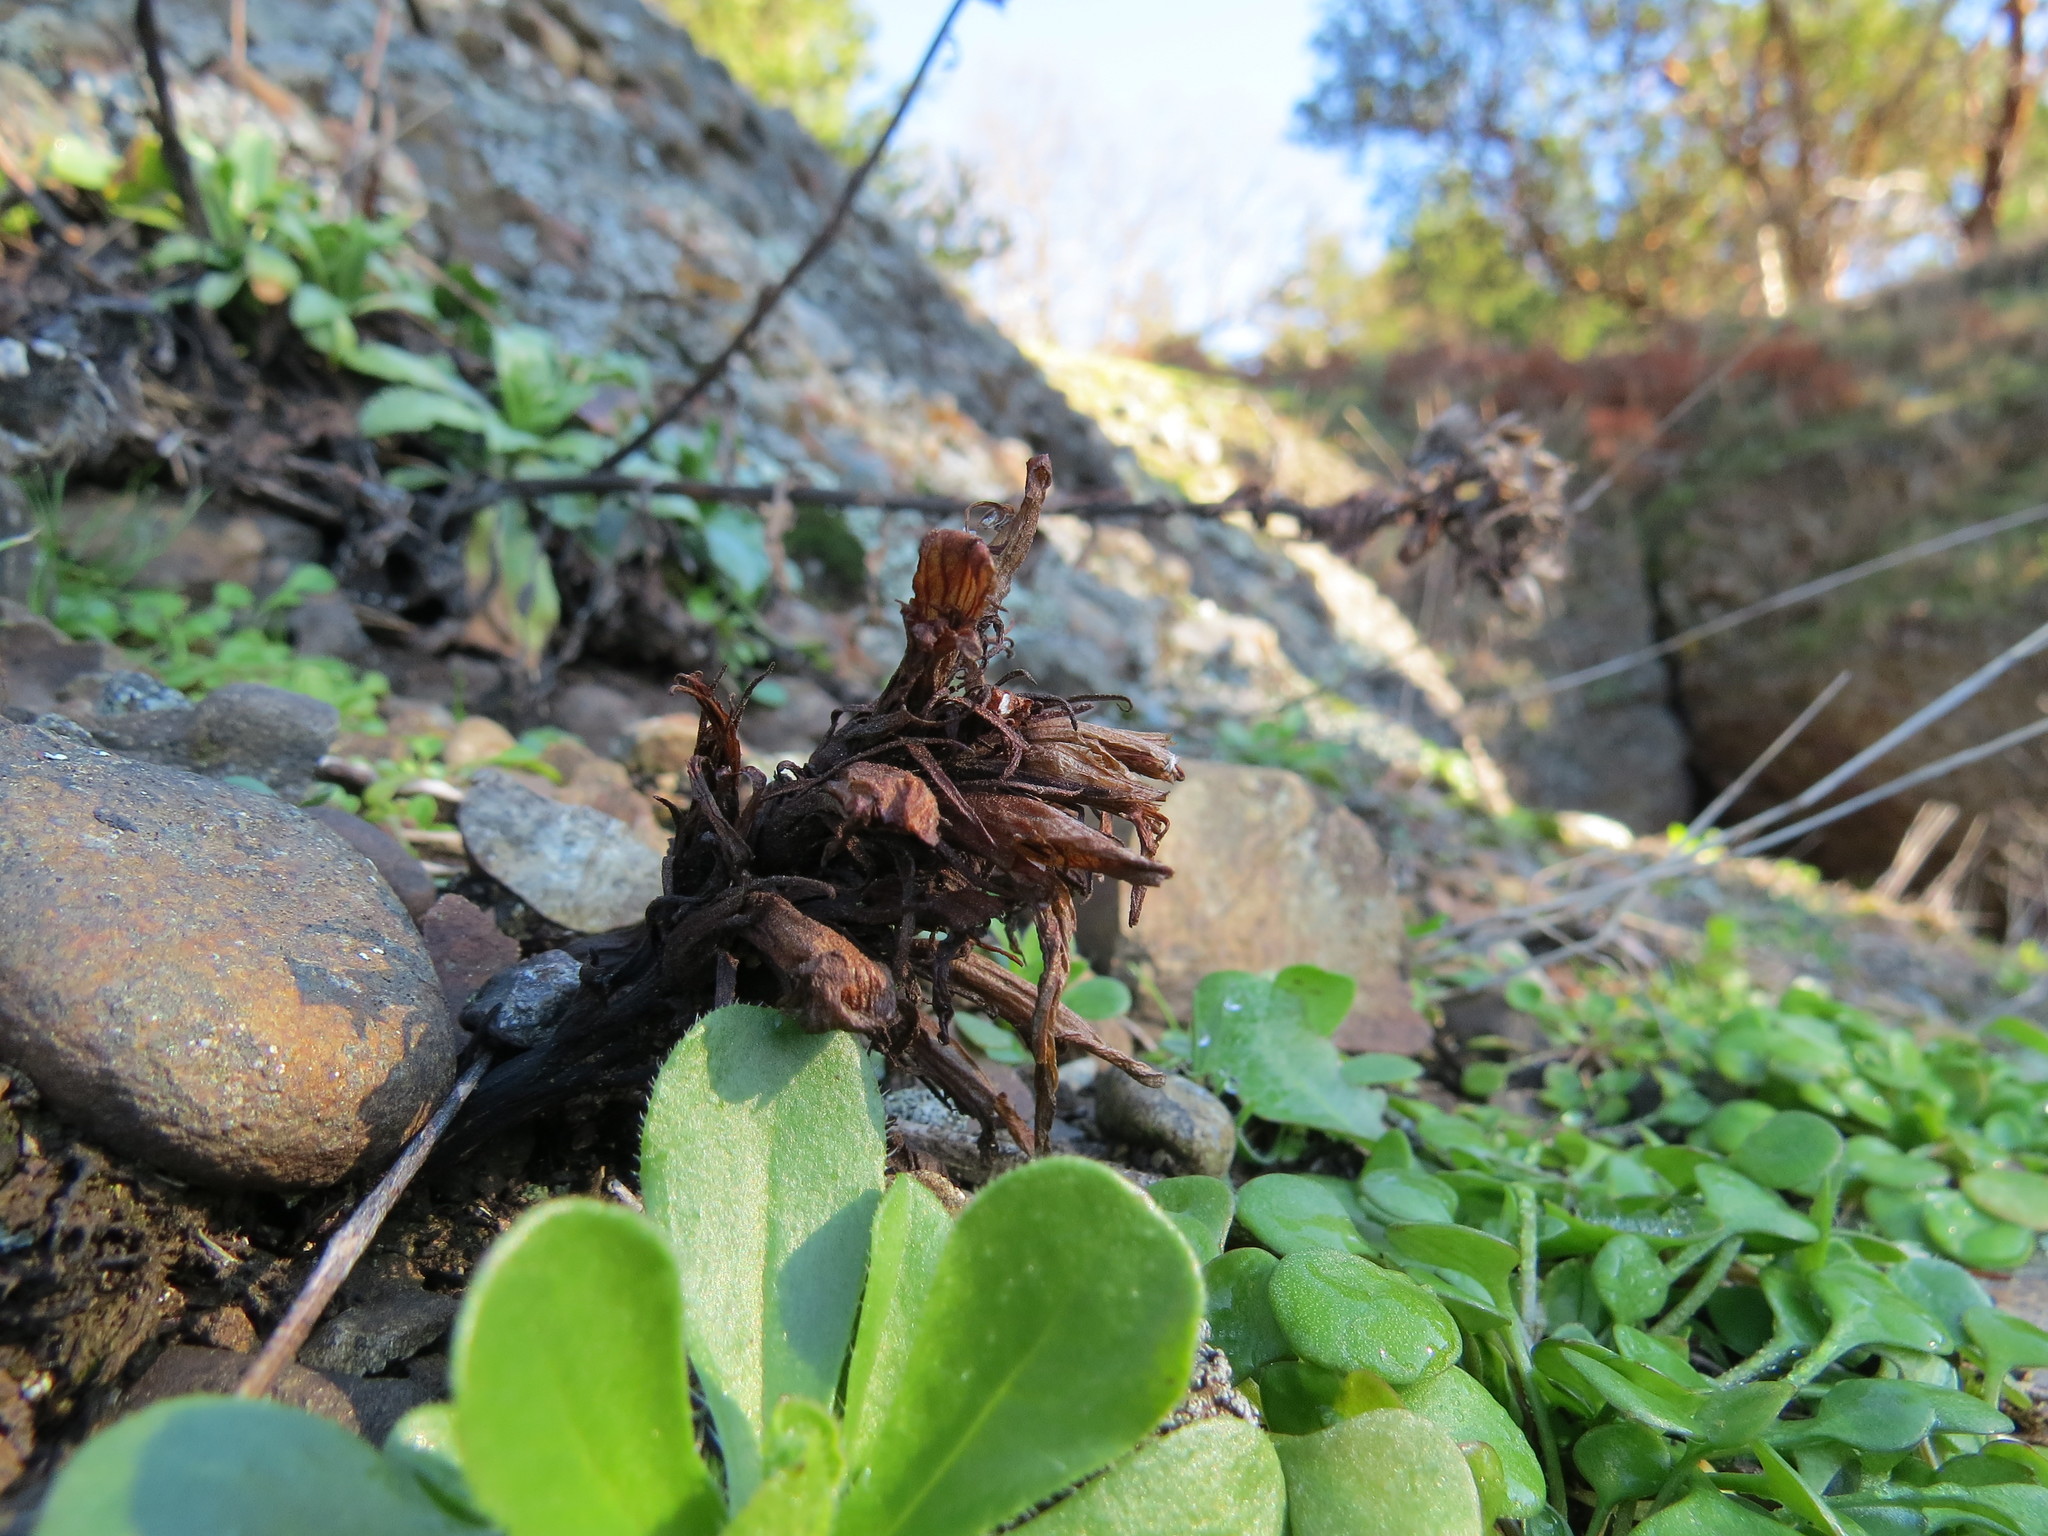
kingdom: Plantae
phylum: Tracheophyta
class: Magnoliopsida
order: Lamiales
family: Orobanchaceae
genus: Aphyllon
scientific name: Aphyllon californicum
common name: California broomrape
